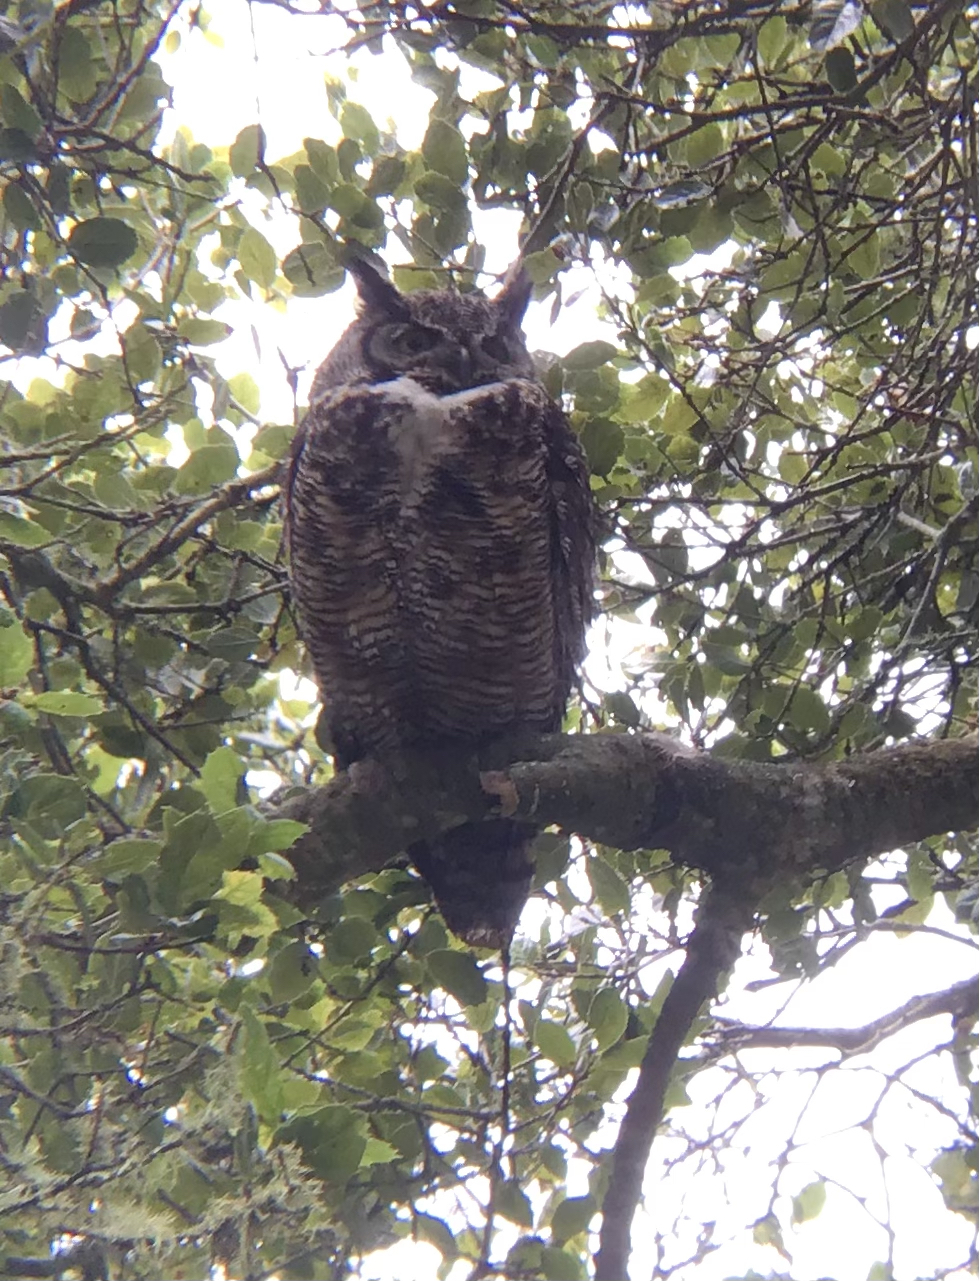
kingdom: Animalia
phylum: Chordata
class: Aves
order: Strigiformes
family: Strigidae
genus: Bubo
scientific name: Bubo virginianus
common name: Great horned owl
